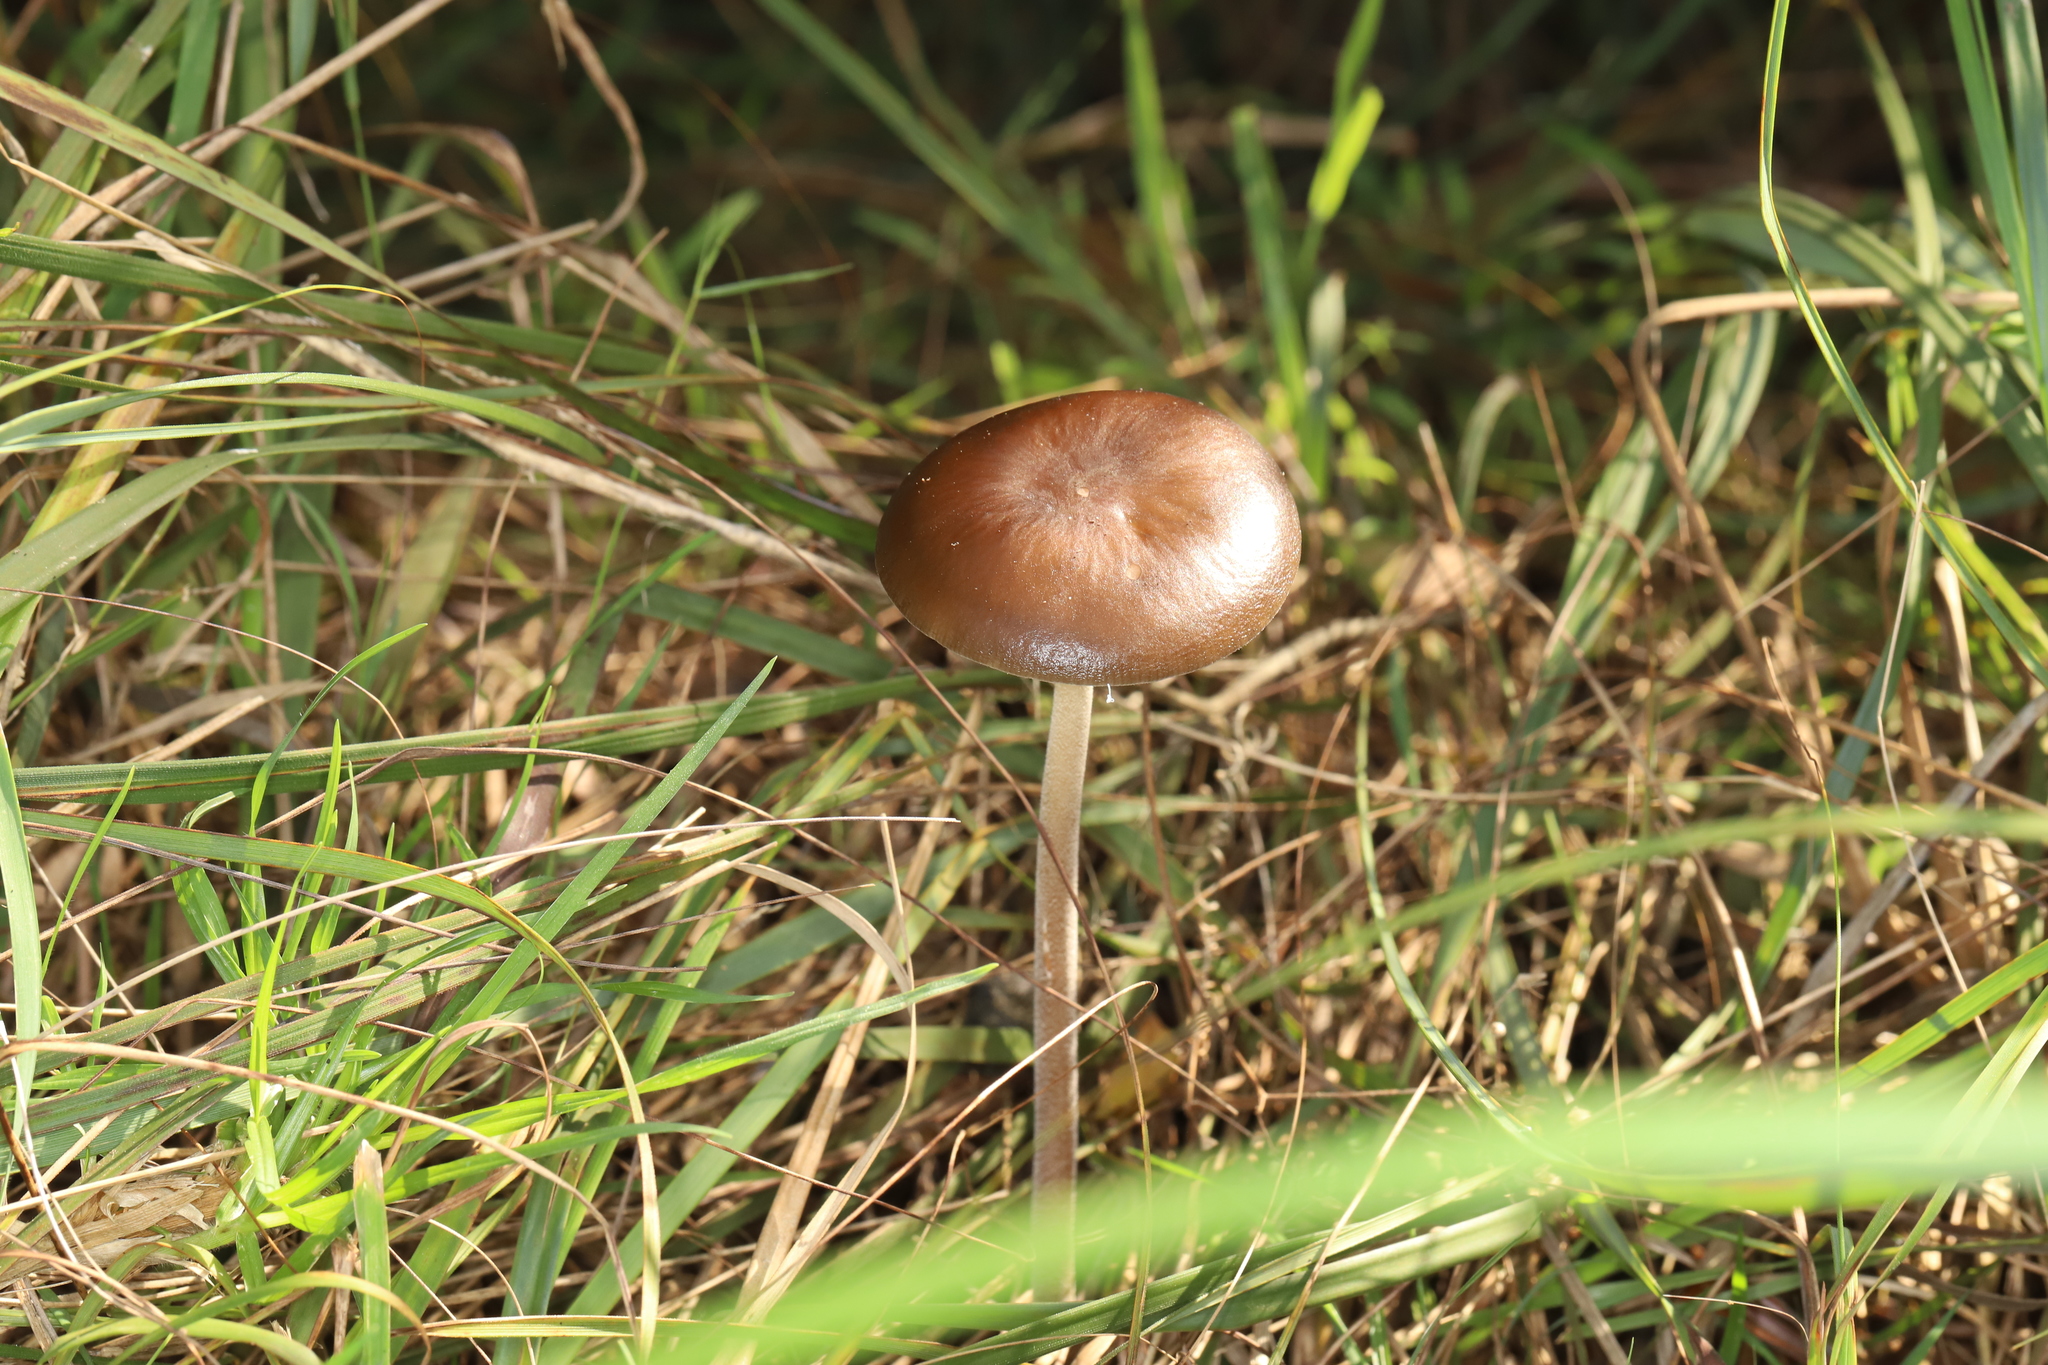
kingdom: Fungi
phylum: Basidiomycota
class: Agaricomycetes
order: Agaricales
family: Physalacriaceae
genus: Hymenopellis
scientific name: Hymenopellis gigaspora
